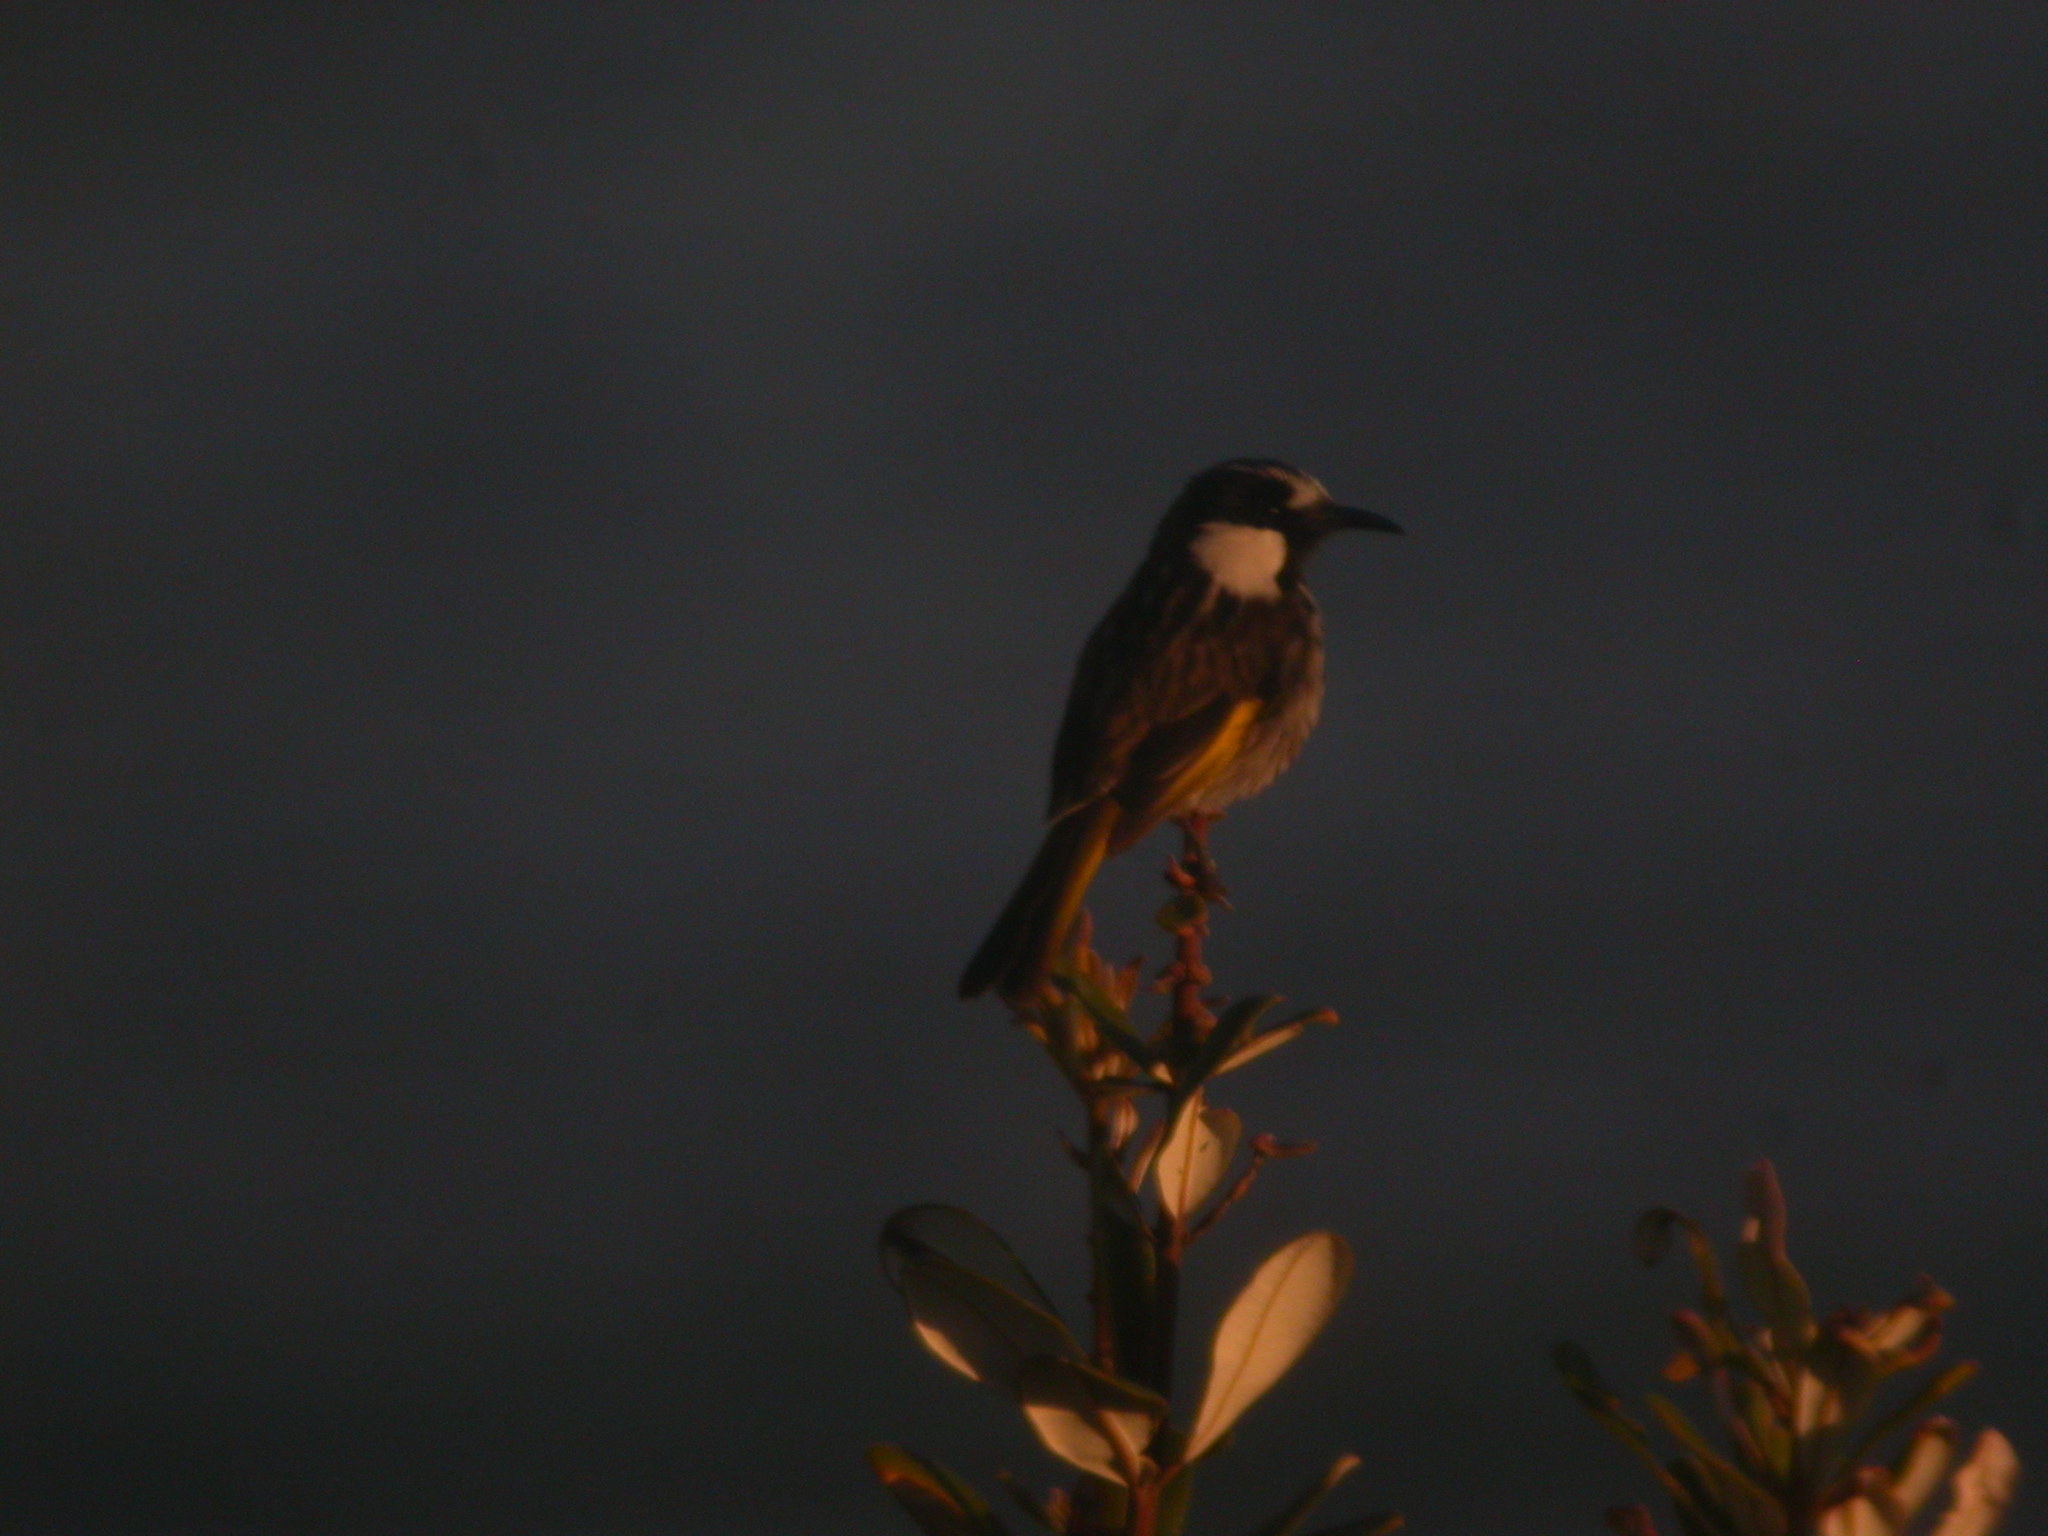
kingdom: Animalia
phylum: Chordata
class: Aves
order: Passeriformes
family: Meliphagidae
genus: Phylidonyris
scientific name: Phylidonyris niger
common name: White-cheeked honeyeater
